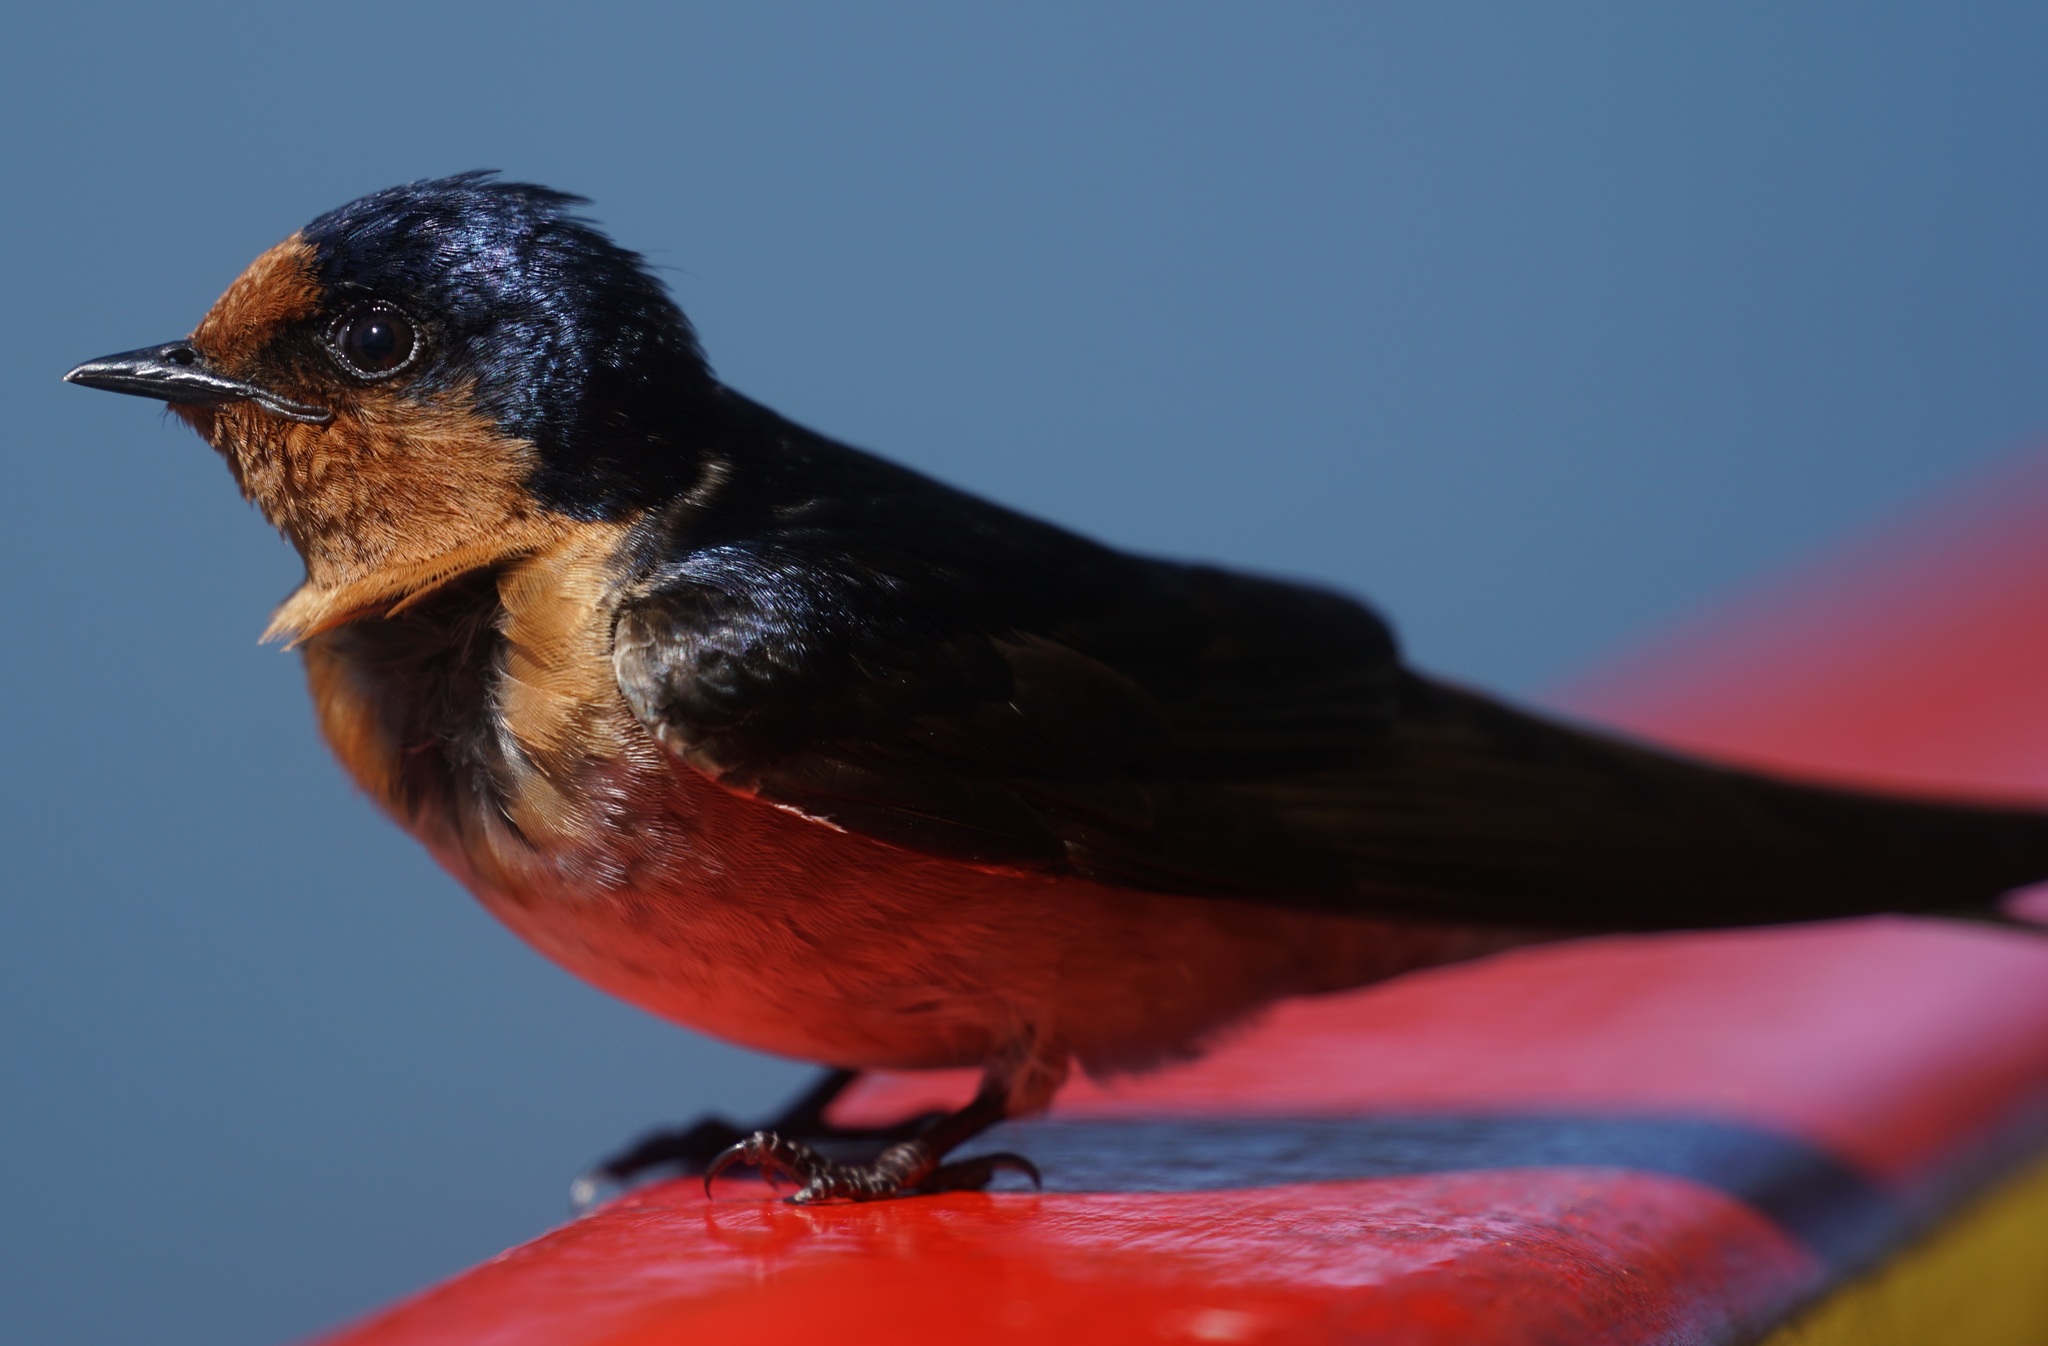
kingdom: Animalia
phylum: Chordata
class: Aves
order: Passeriformes
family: Hirundinidae
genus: Hirundo
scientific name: Hirundo neoxena
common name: Welcome swallow
